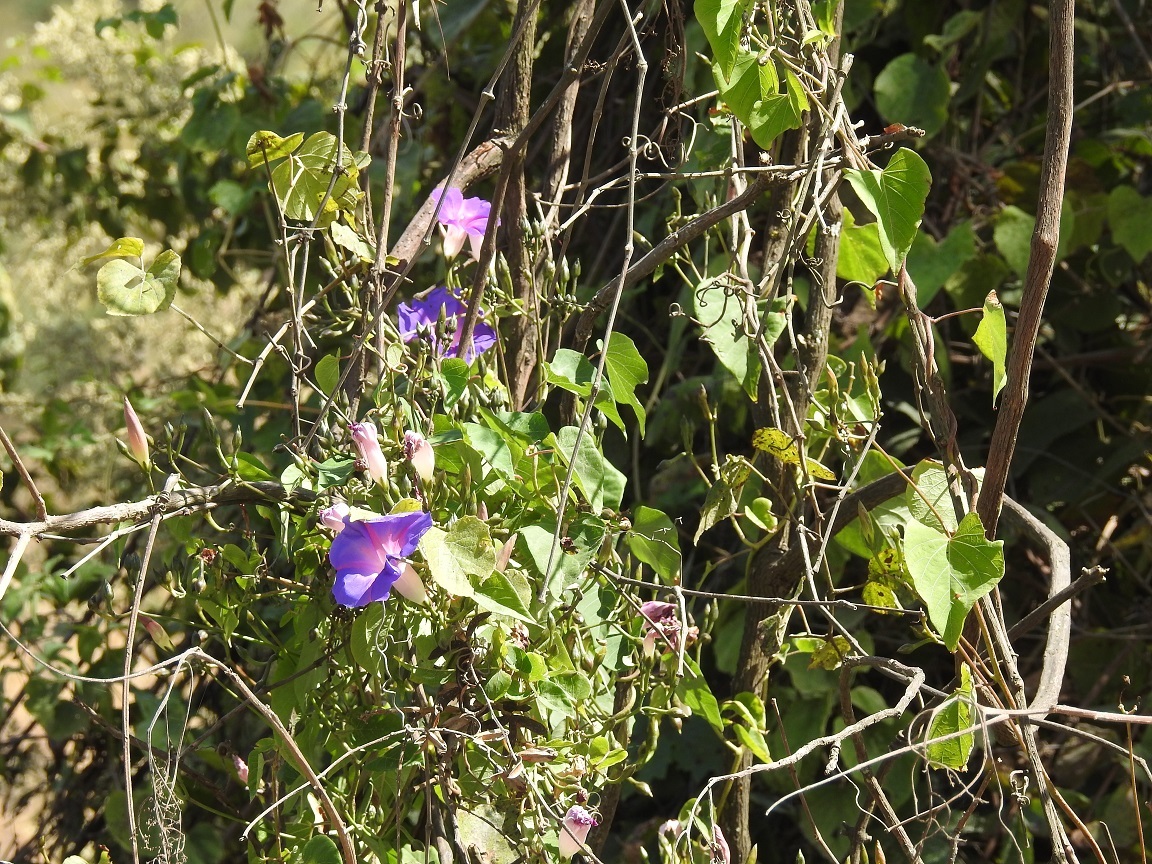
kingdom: Plantae
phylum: Tracheophyta
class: Magnoliopsida
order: Solanales
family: Convolvulaceae
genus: Ipomoea
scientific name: Ipomoea orizabensis
